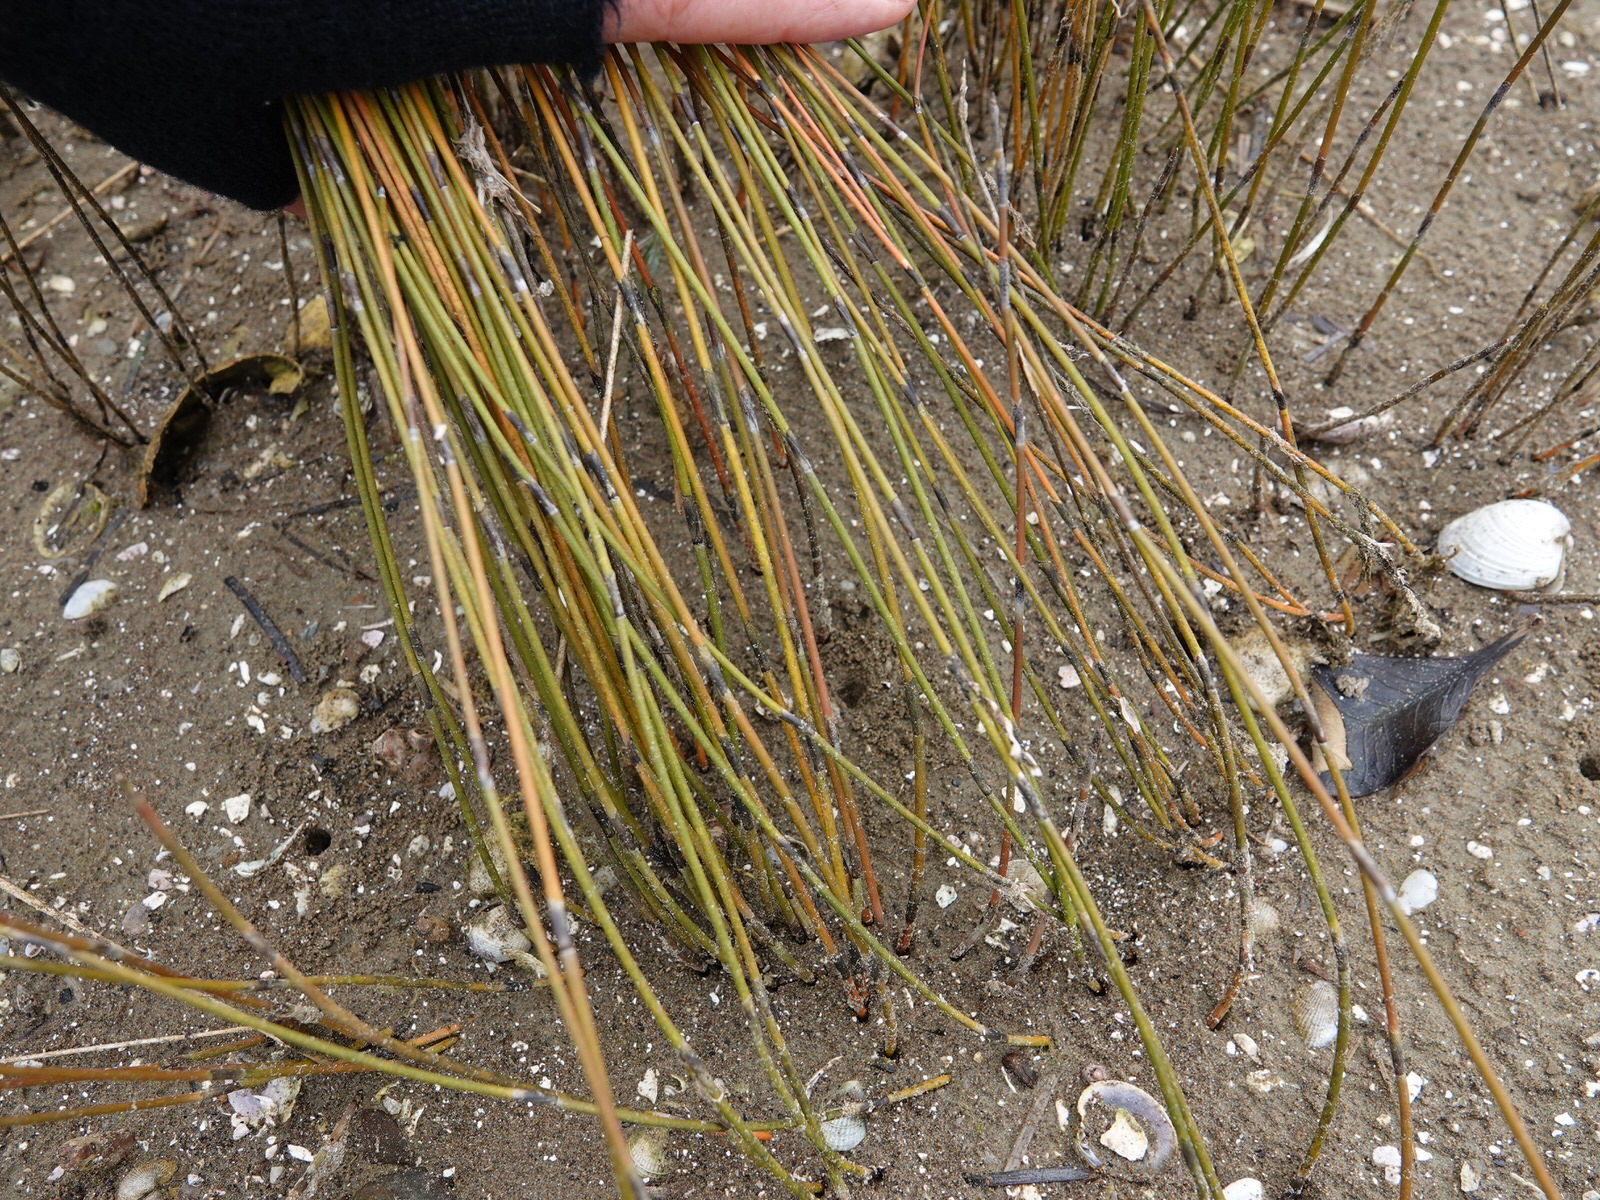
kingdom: Plantae
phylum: Tracheophyta
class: Liliopsida
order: Poales
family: Restionaceae
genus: Apodasmia
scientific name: Apodasmia similis
